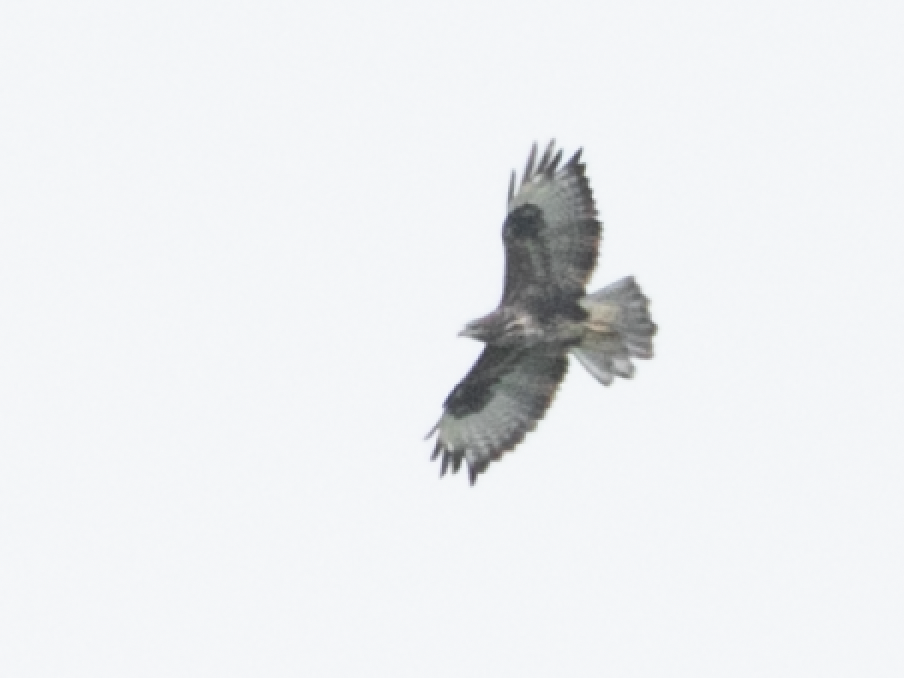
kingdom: Animalia
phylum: Chordata
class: Aves
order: Accipitriformes
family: Accipitridae
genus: Buteo
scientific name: Buteo buteo
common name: Common buzzard
